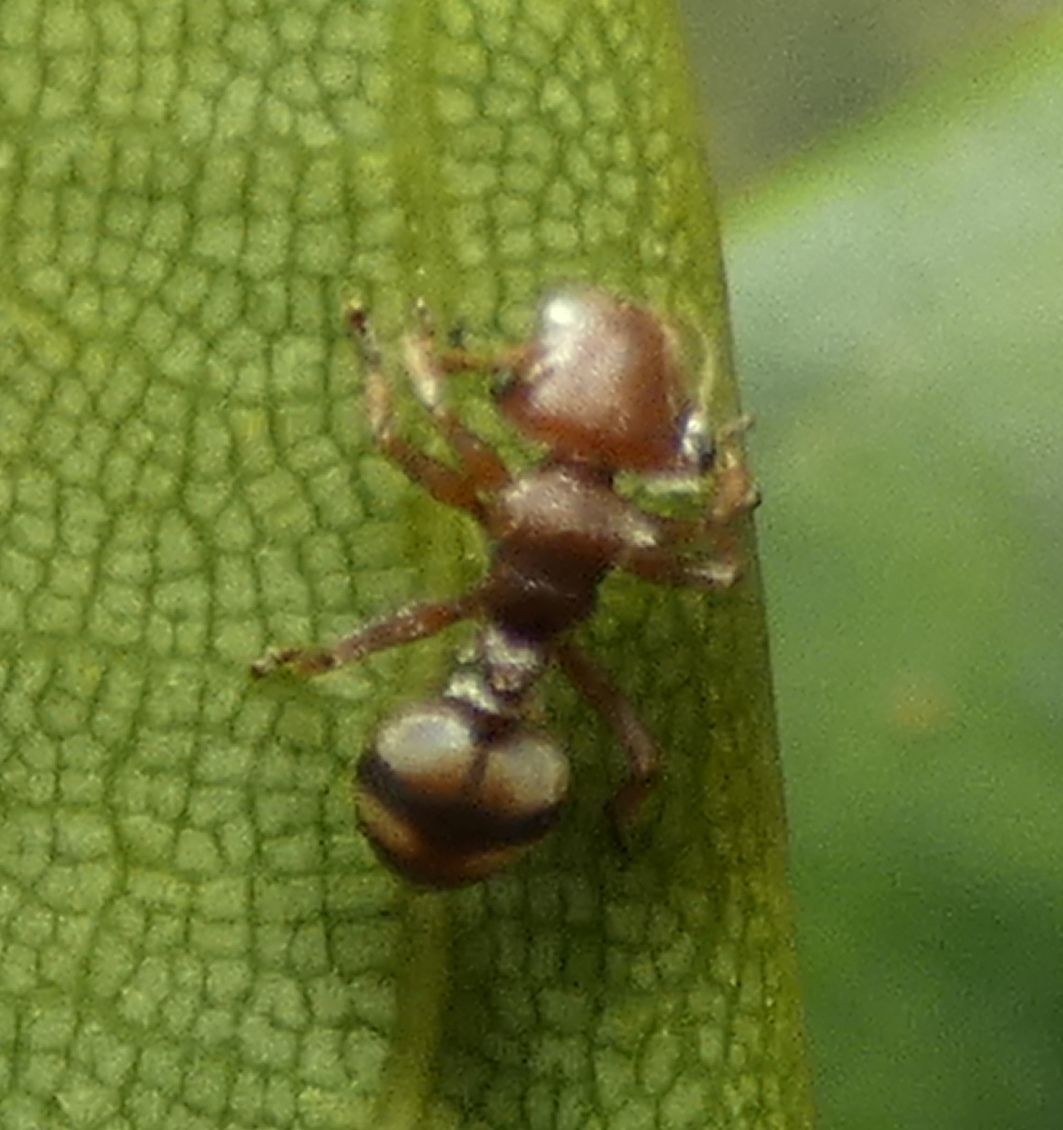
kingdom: Animalia
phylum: Arthropoda
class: Insecta
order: Hymenoptera
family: Formicidae
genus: Cephalotes
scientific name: Cephalotes umbraculatus
